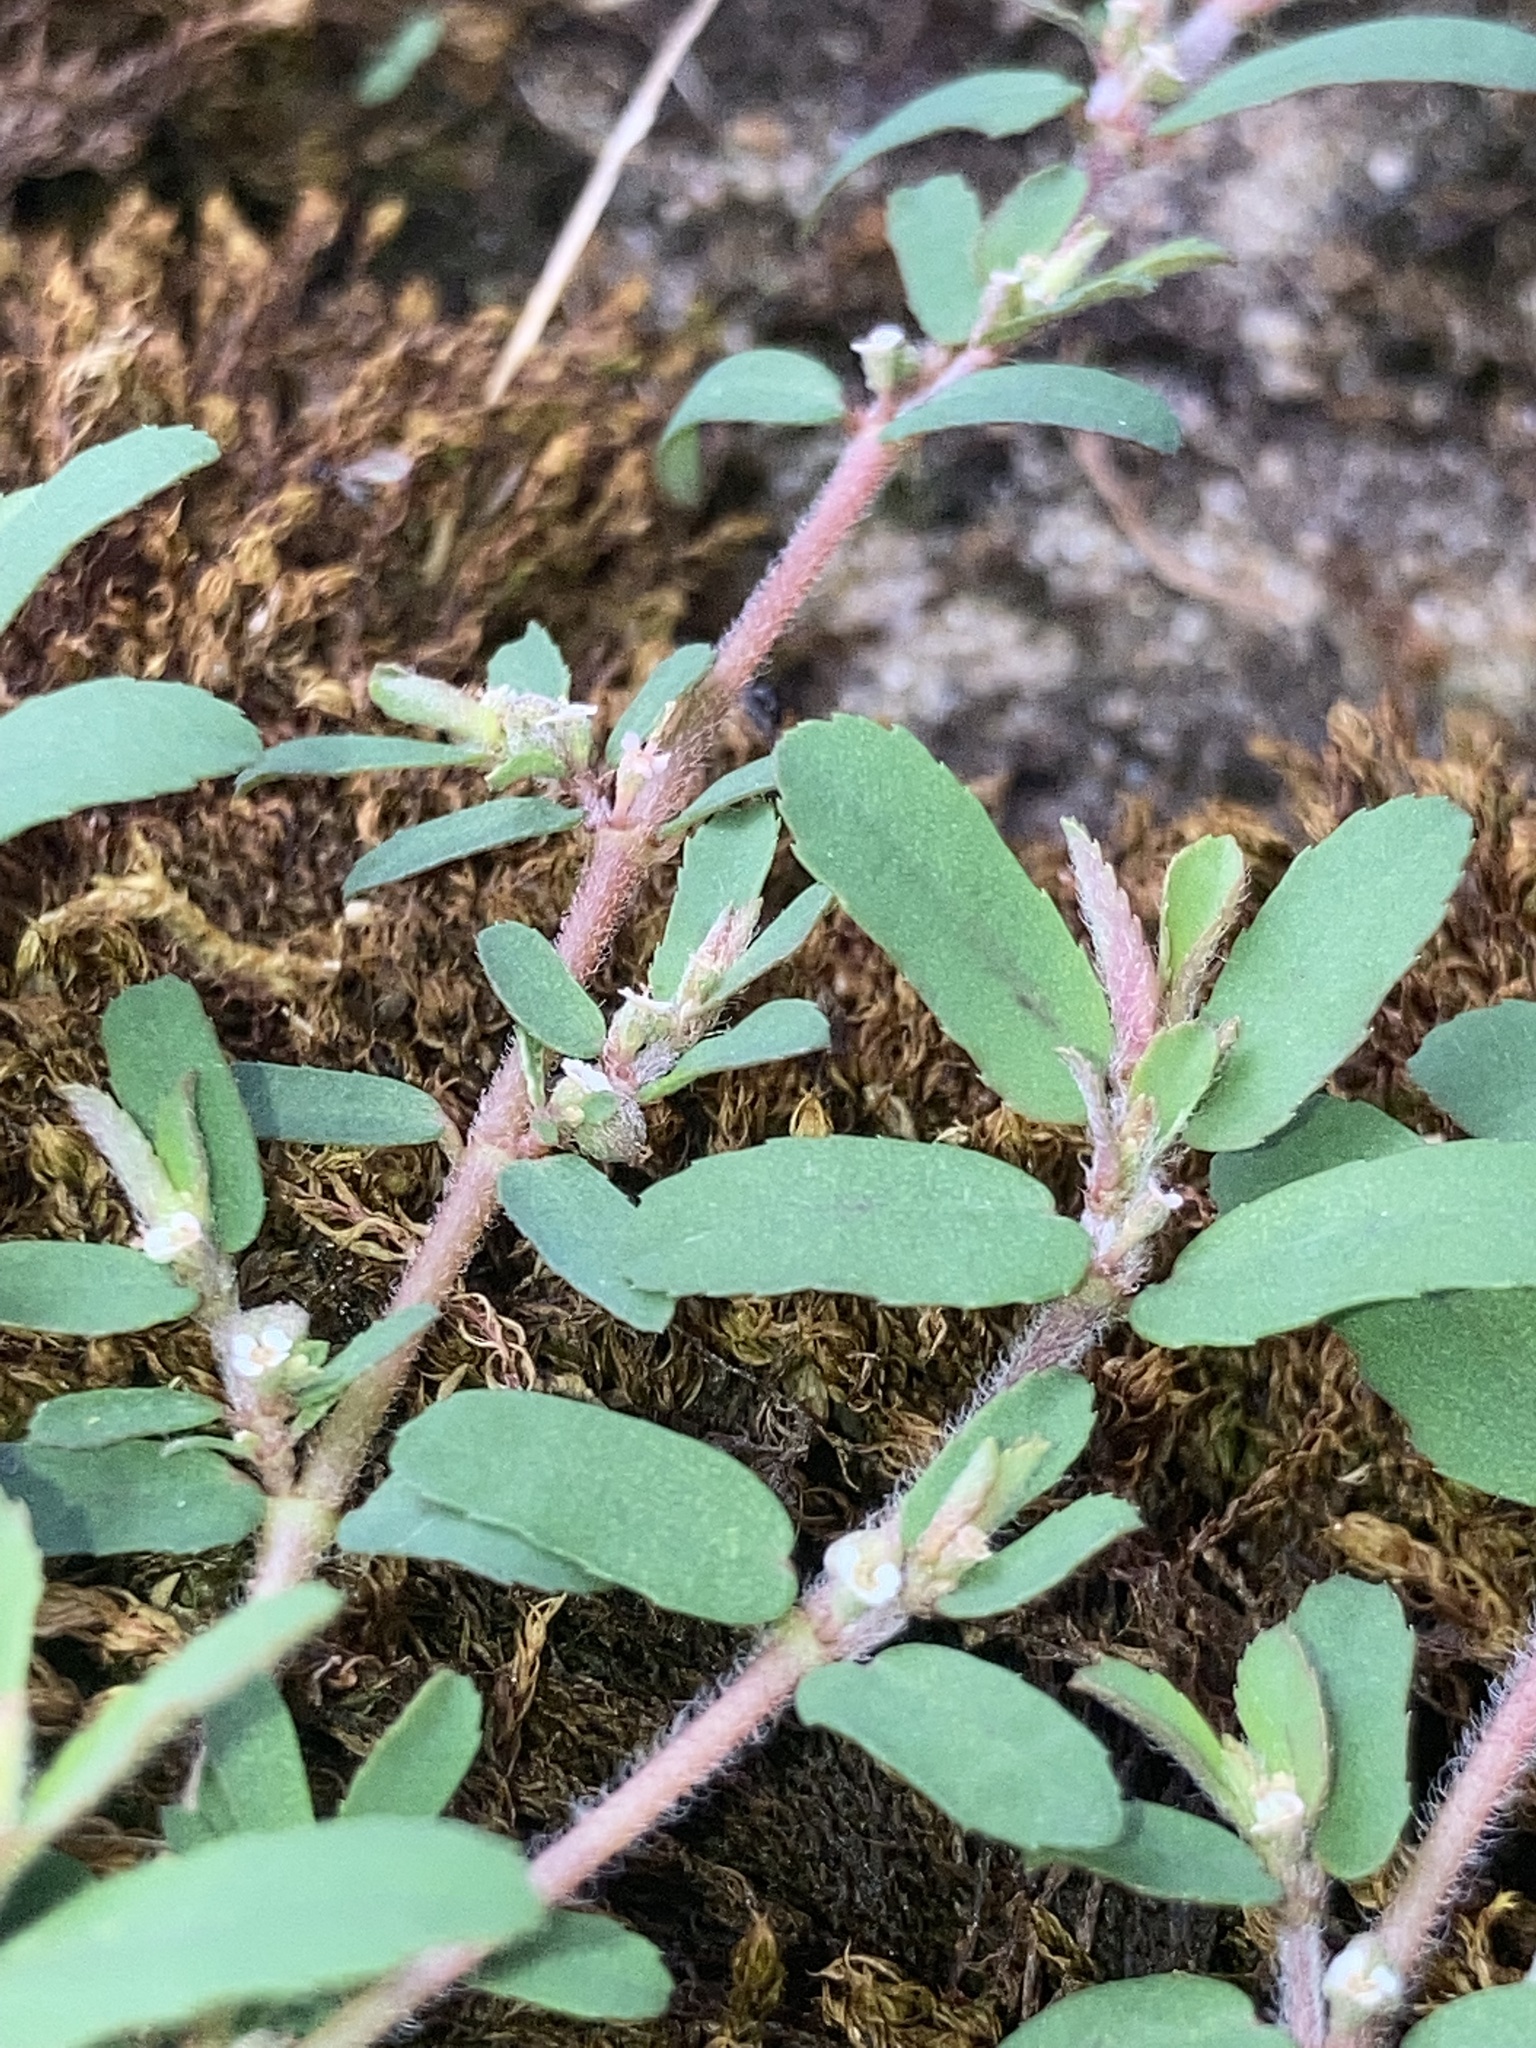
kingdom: Plantae
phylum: Tracheophyta
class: Magnoliopsida
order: Malpighiales
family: Euphorbiaceae
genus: Euphorbia
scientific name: Euphorbia maculata
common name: Spotted spurge
